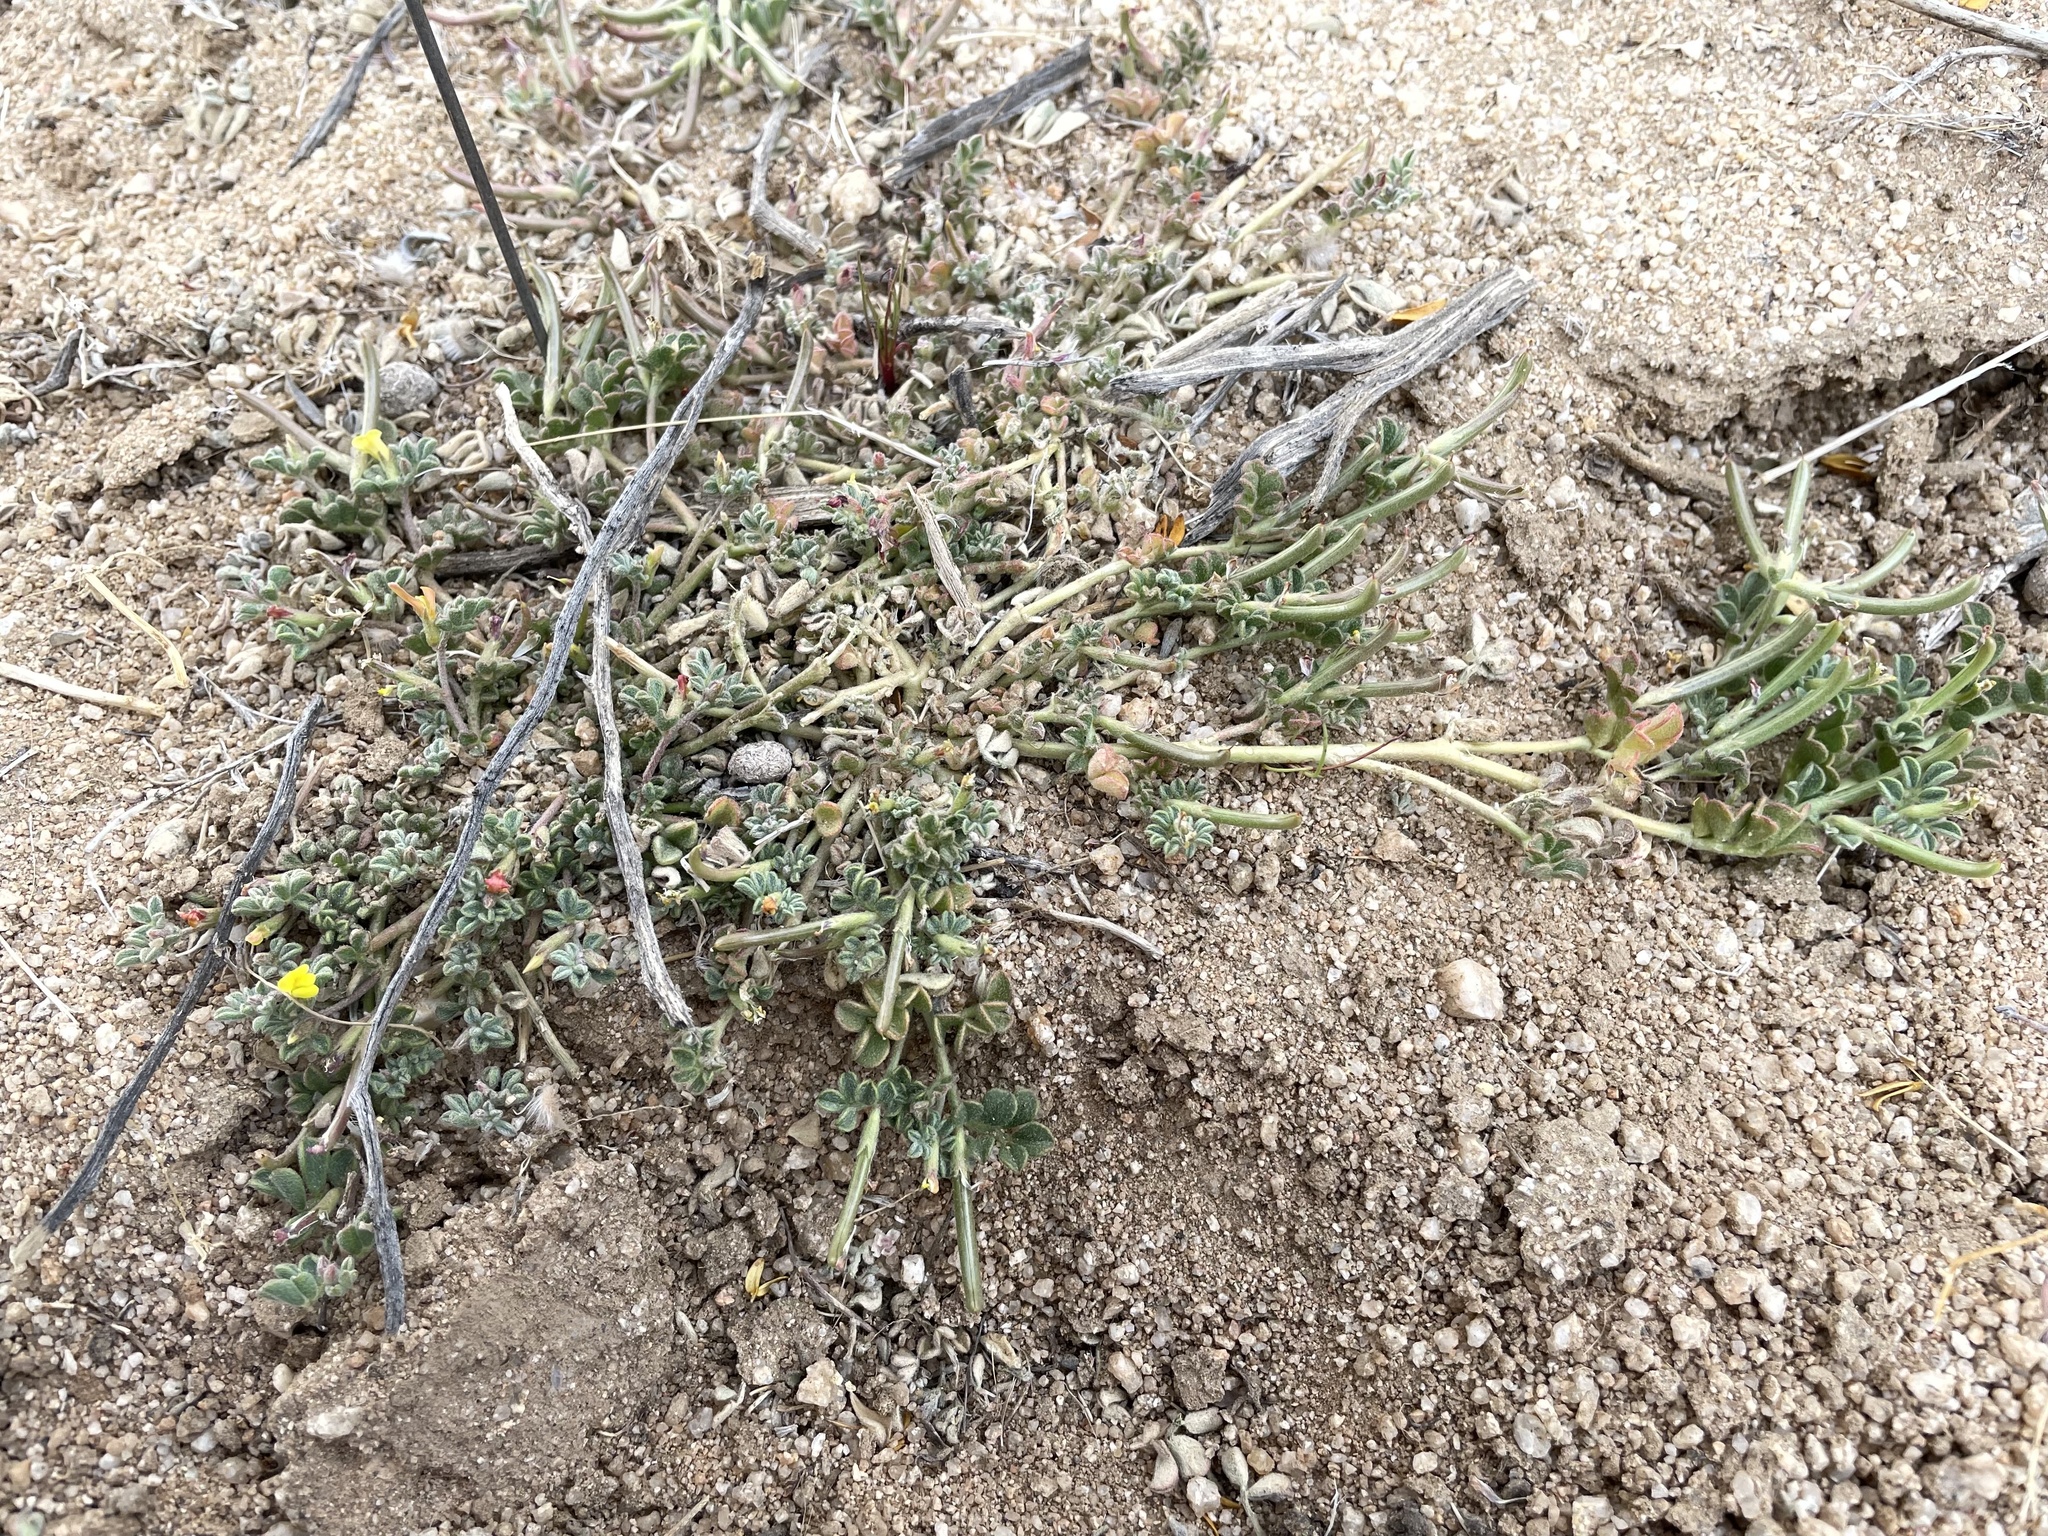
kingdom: Plantae
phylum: Tracheophyta
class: Magnoliopsida
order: Fabales
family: Fabaceae
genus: Acmispon
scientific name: Acmispon strigosus
